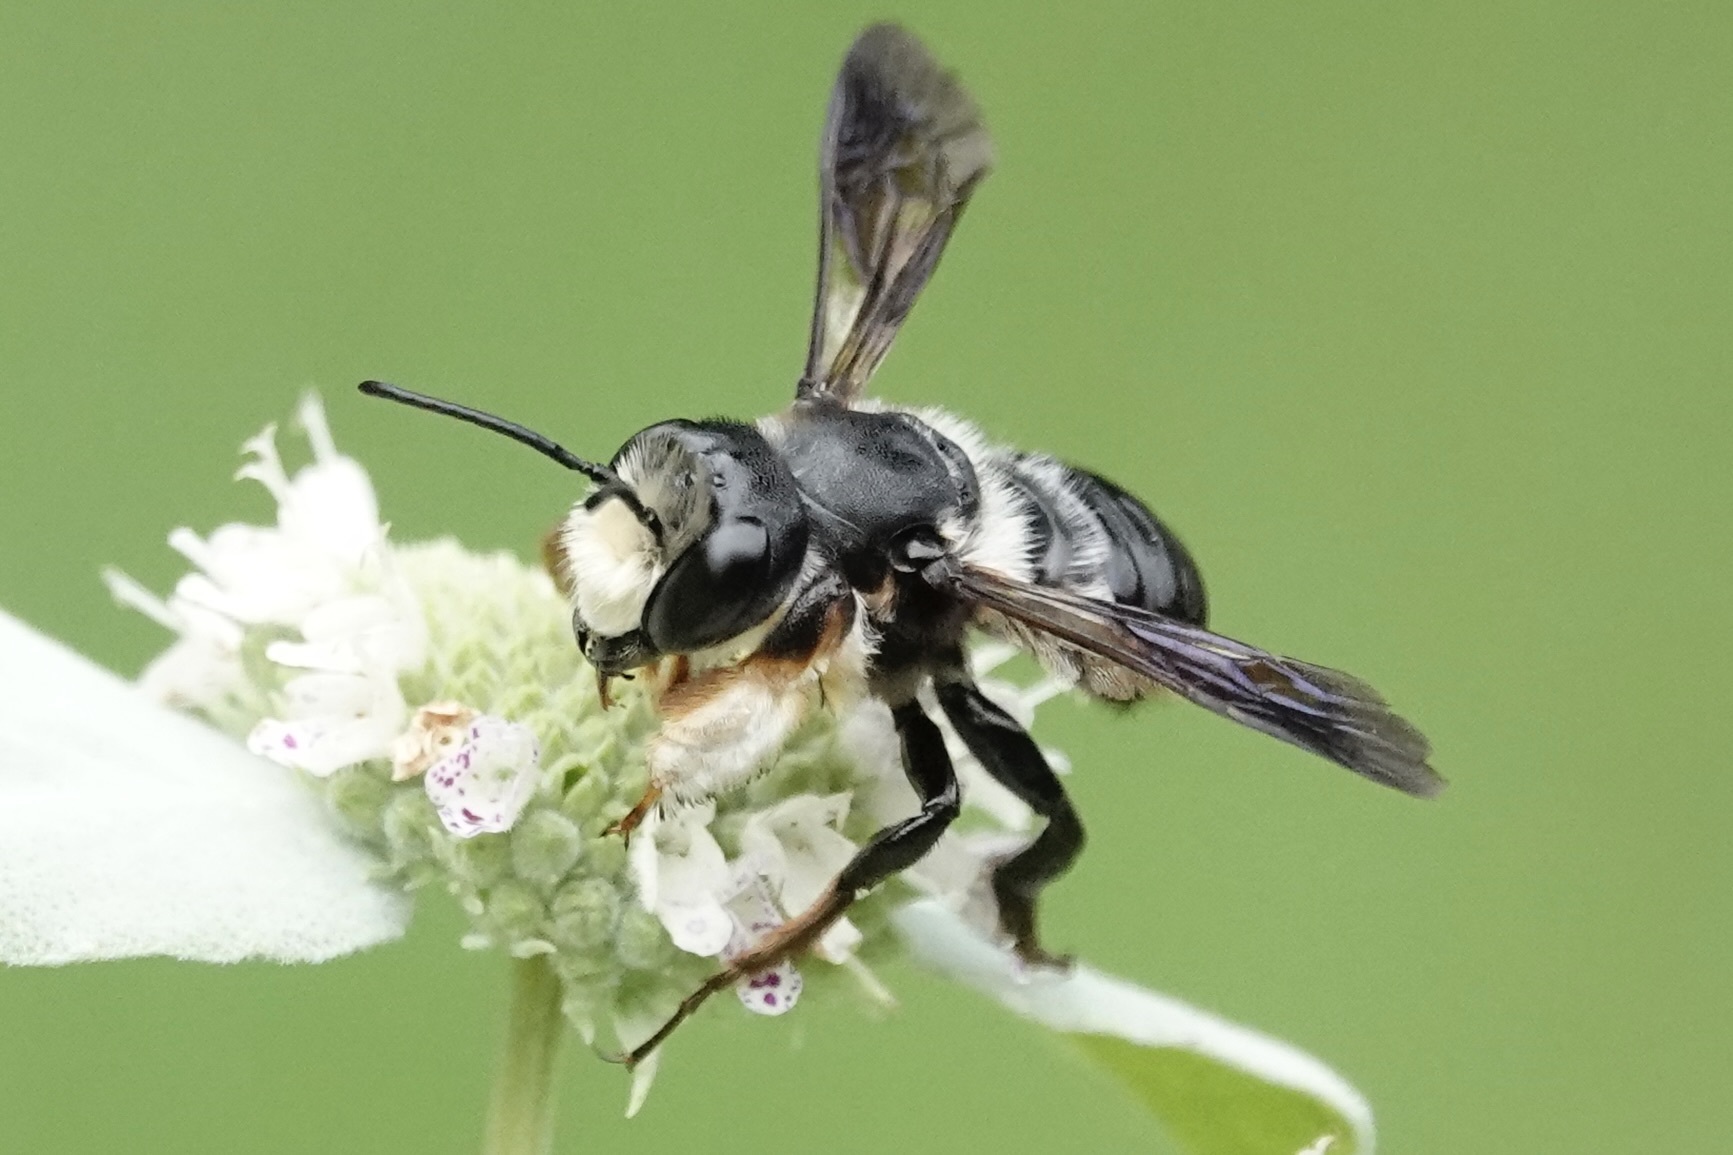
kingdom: Animalia
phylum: Arthropoda
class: Insecta
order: Hymenoptera
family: Megachilidae
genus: Megachile
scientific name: Megachile xylocopoides
